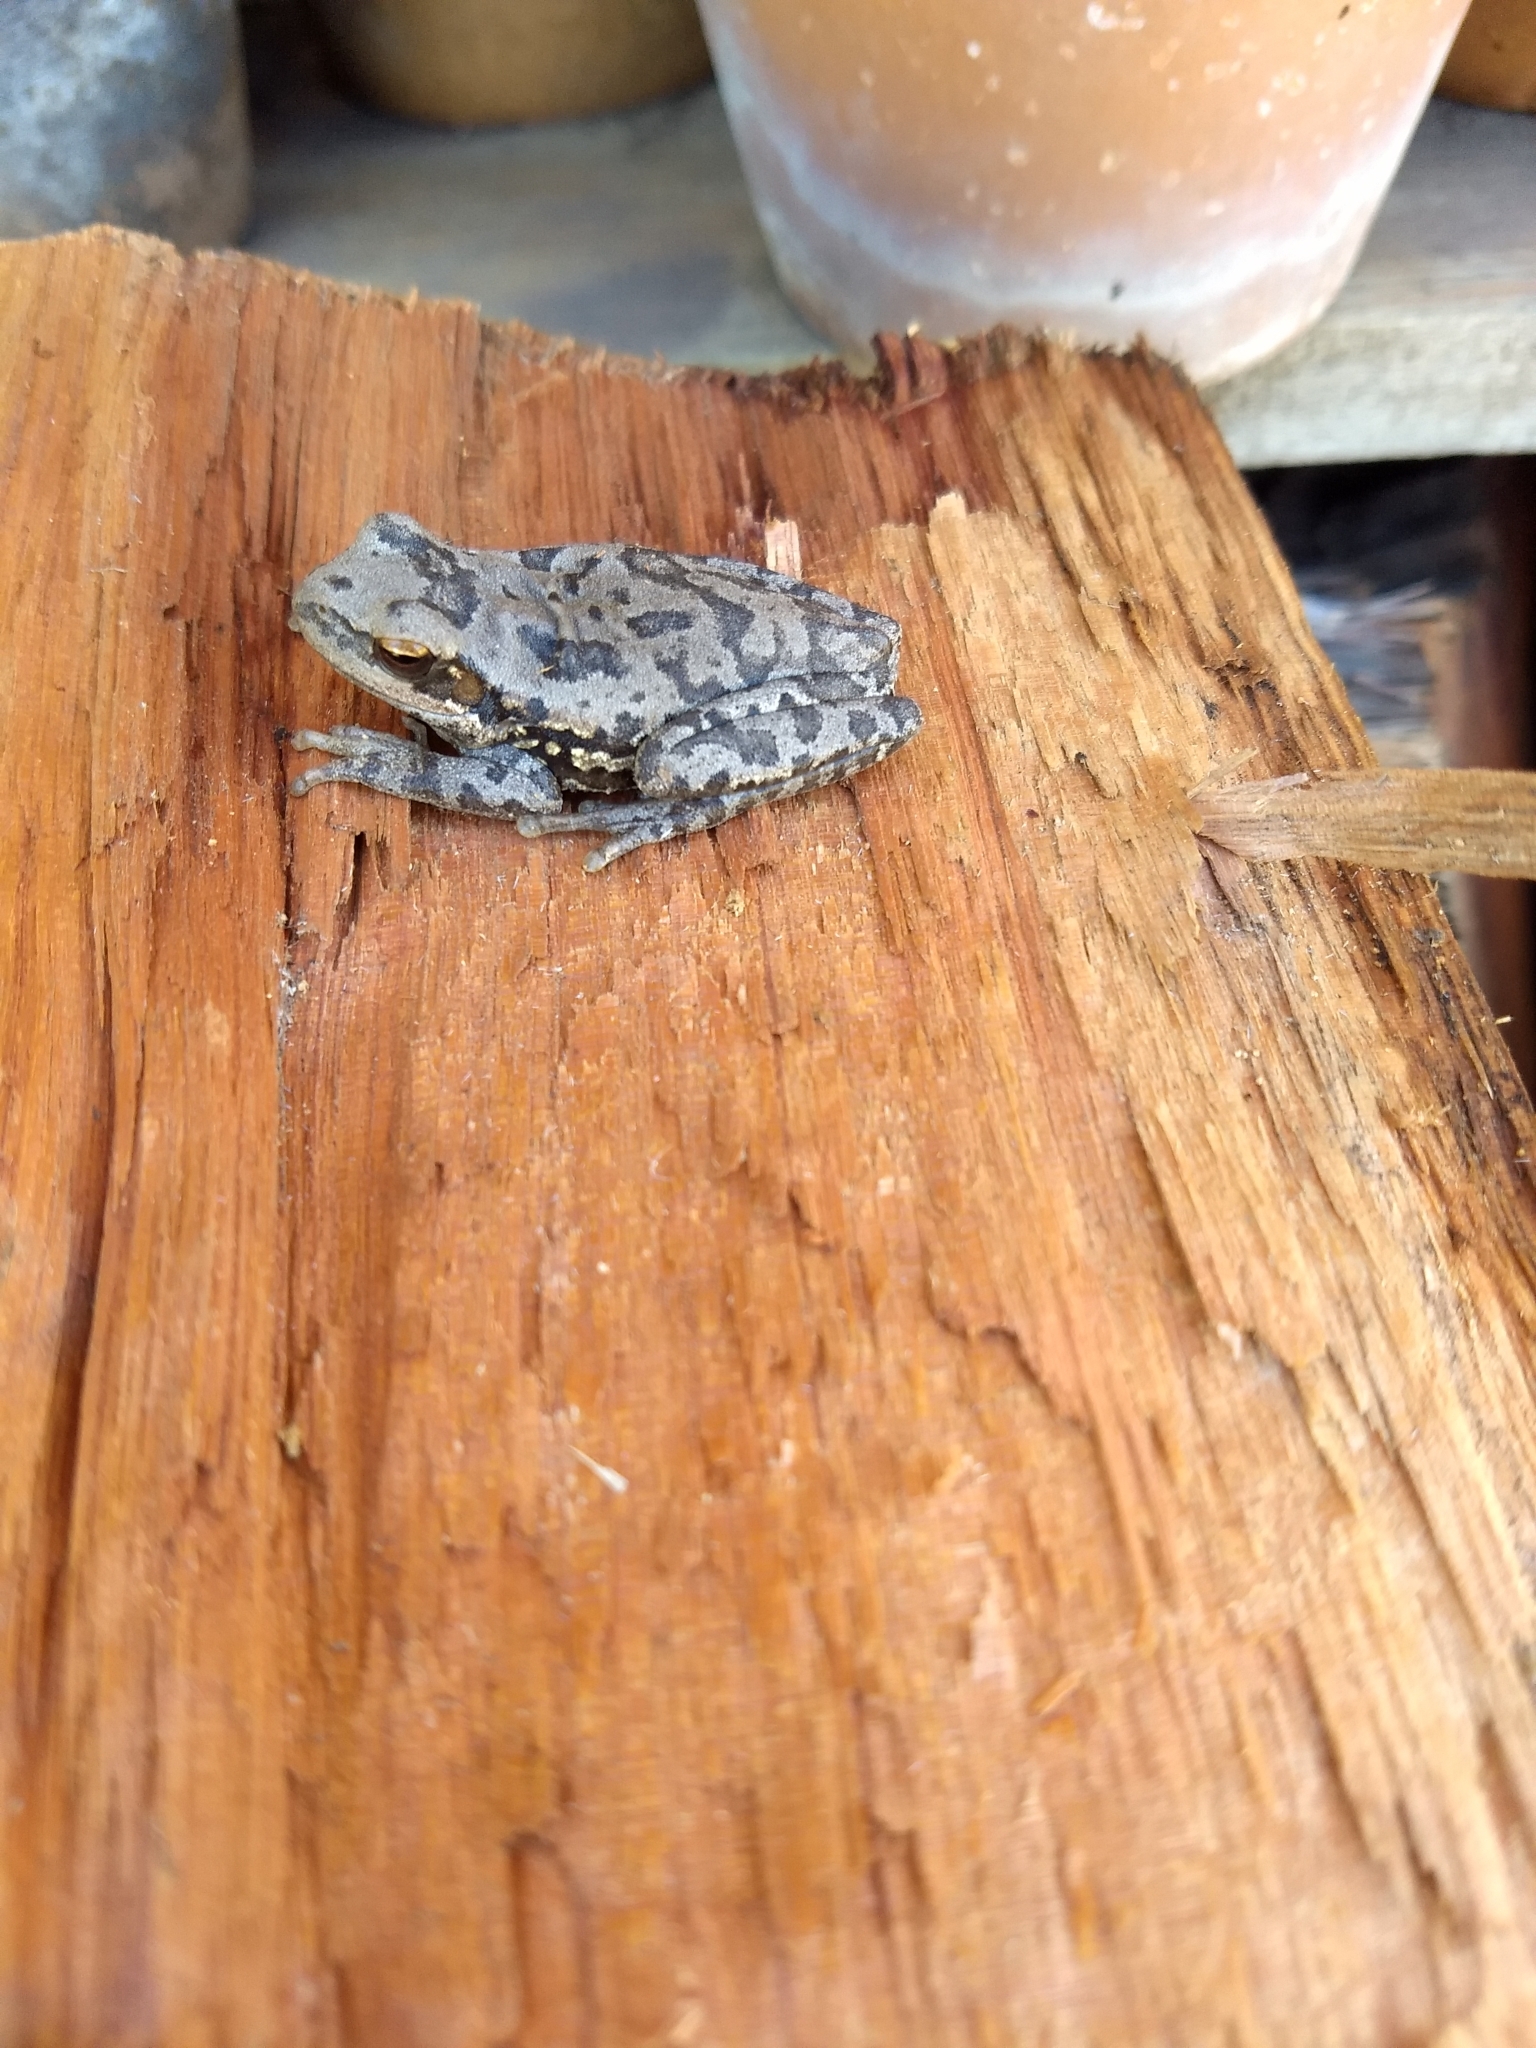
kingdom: Animalia
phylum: Chordata
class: Amphibia
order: Anura
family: Hylidae
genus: Boana
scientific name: Boana pulchella
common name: Montevideo treefrog
